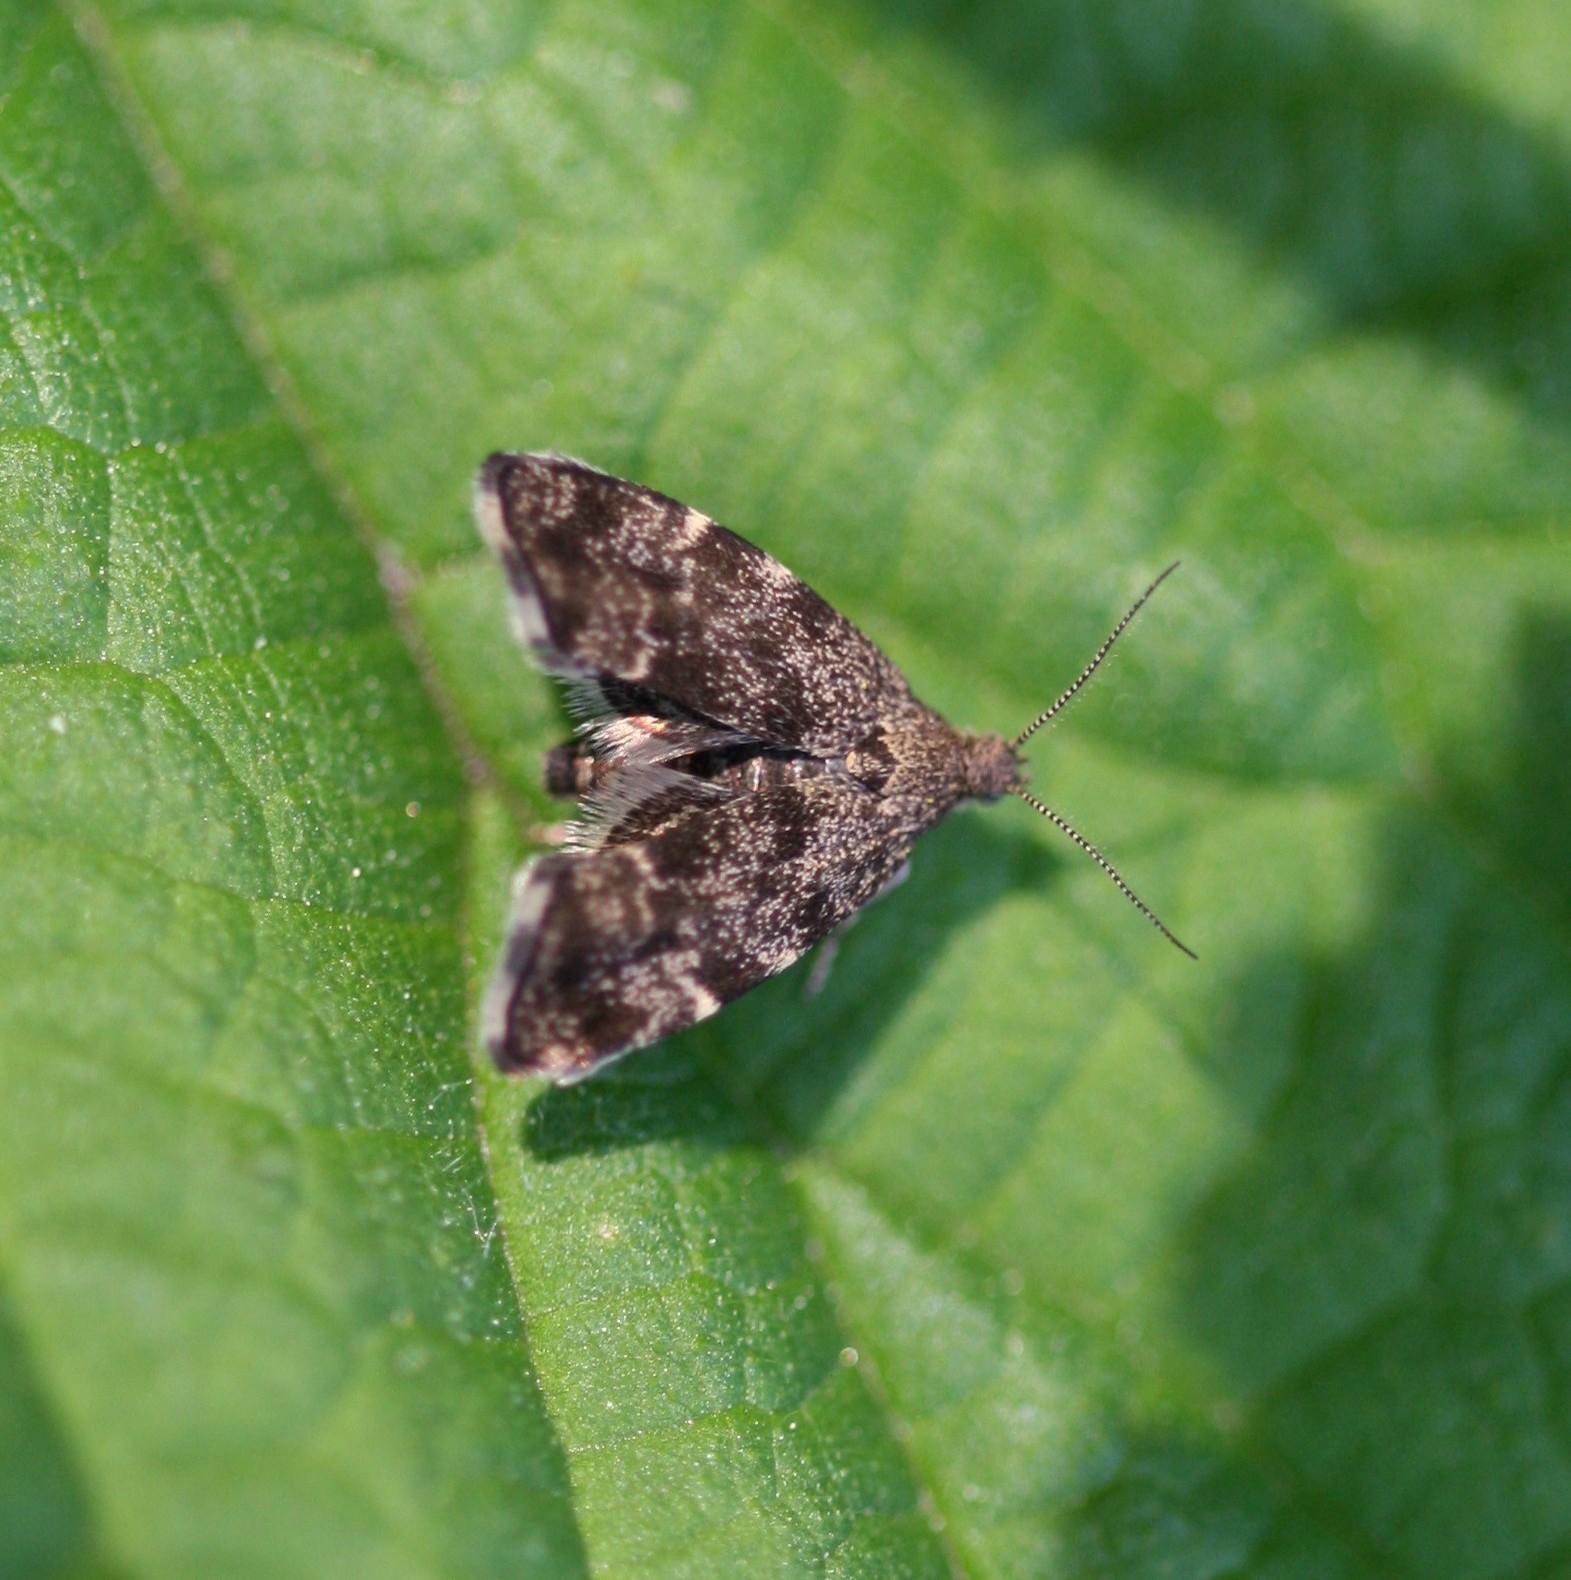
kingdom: Animalia
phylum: Arthropoda
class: Insecta
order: Lepidoptera
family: Choreutidae
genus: Anthophila
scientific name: Anthophila fabriciana
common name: Nettle-tap
